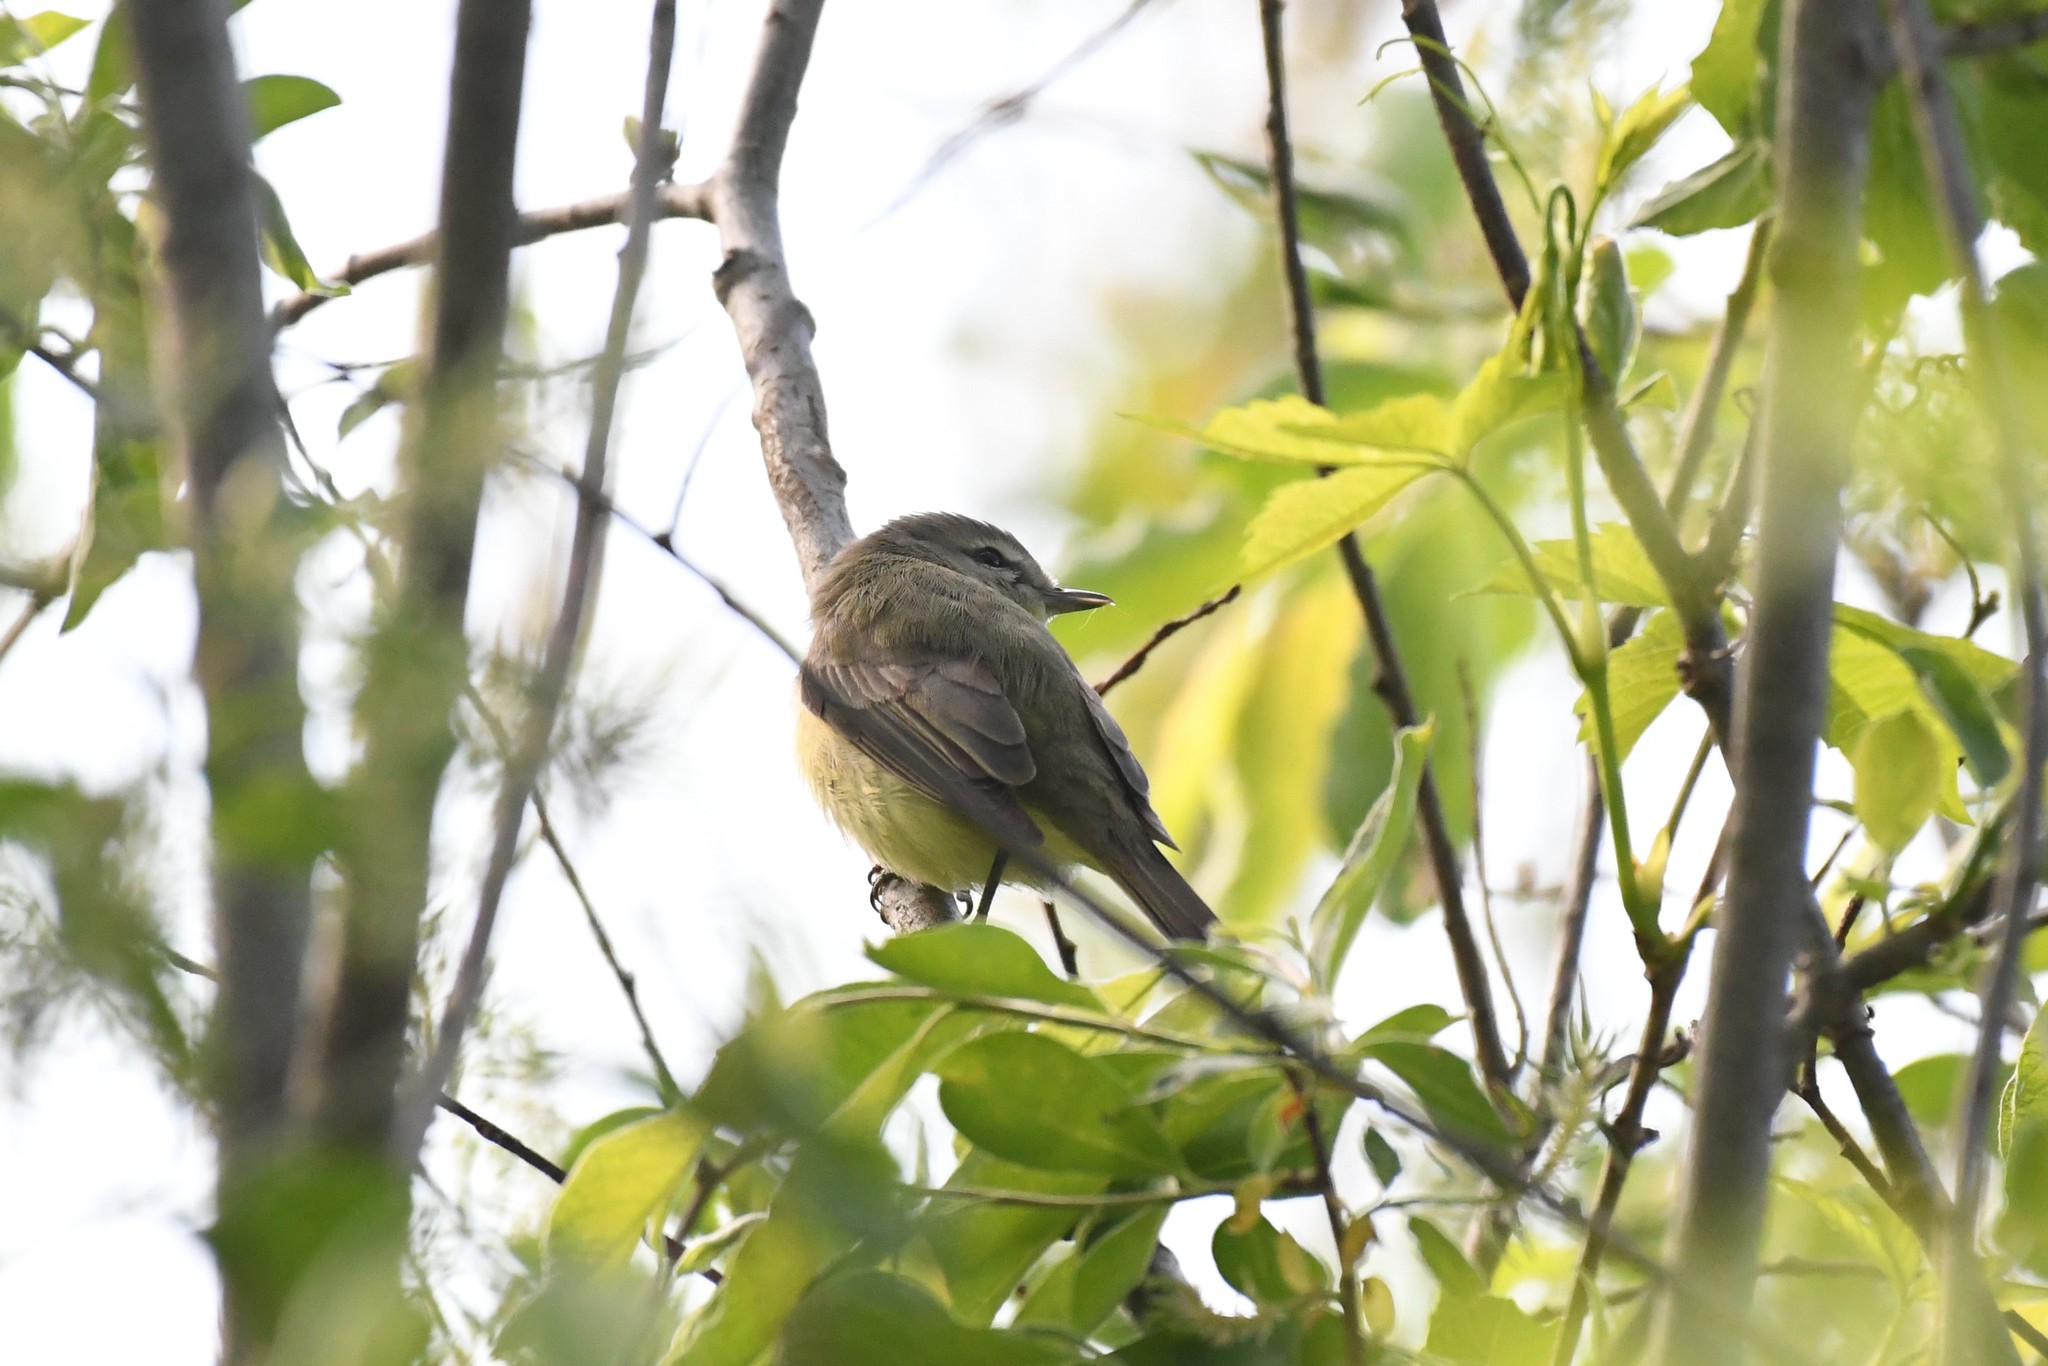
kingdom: Animalia
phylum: Chordata
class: Aves
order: Passeriformes
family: Vireonidae
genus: Vireo
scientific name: Vireo philadelphicus
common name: Philadelphia vireo
